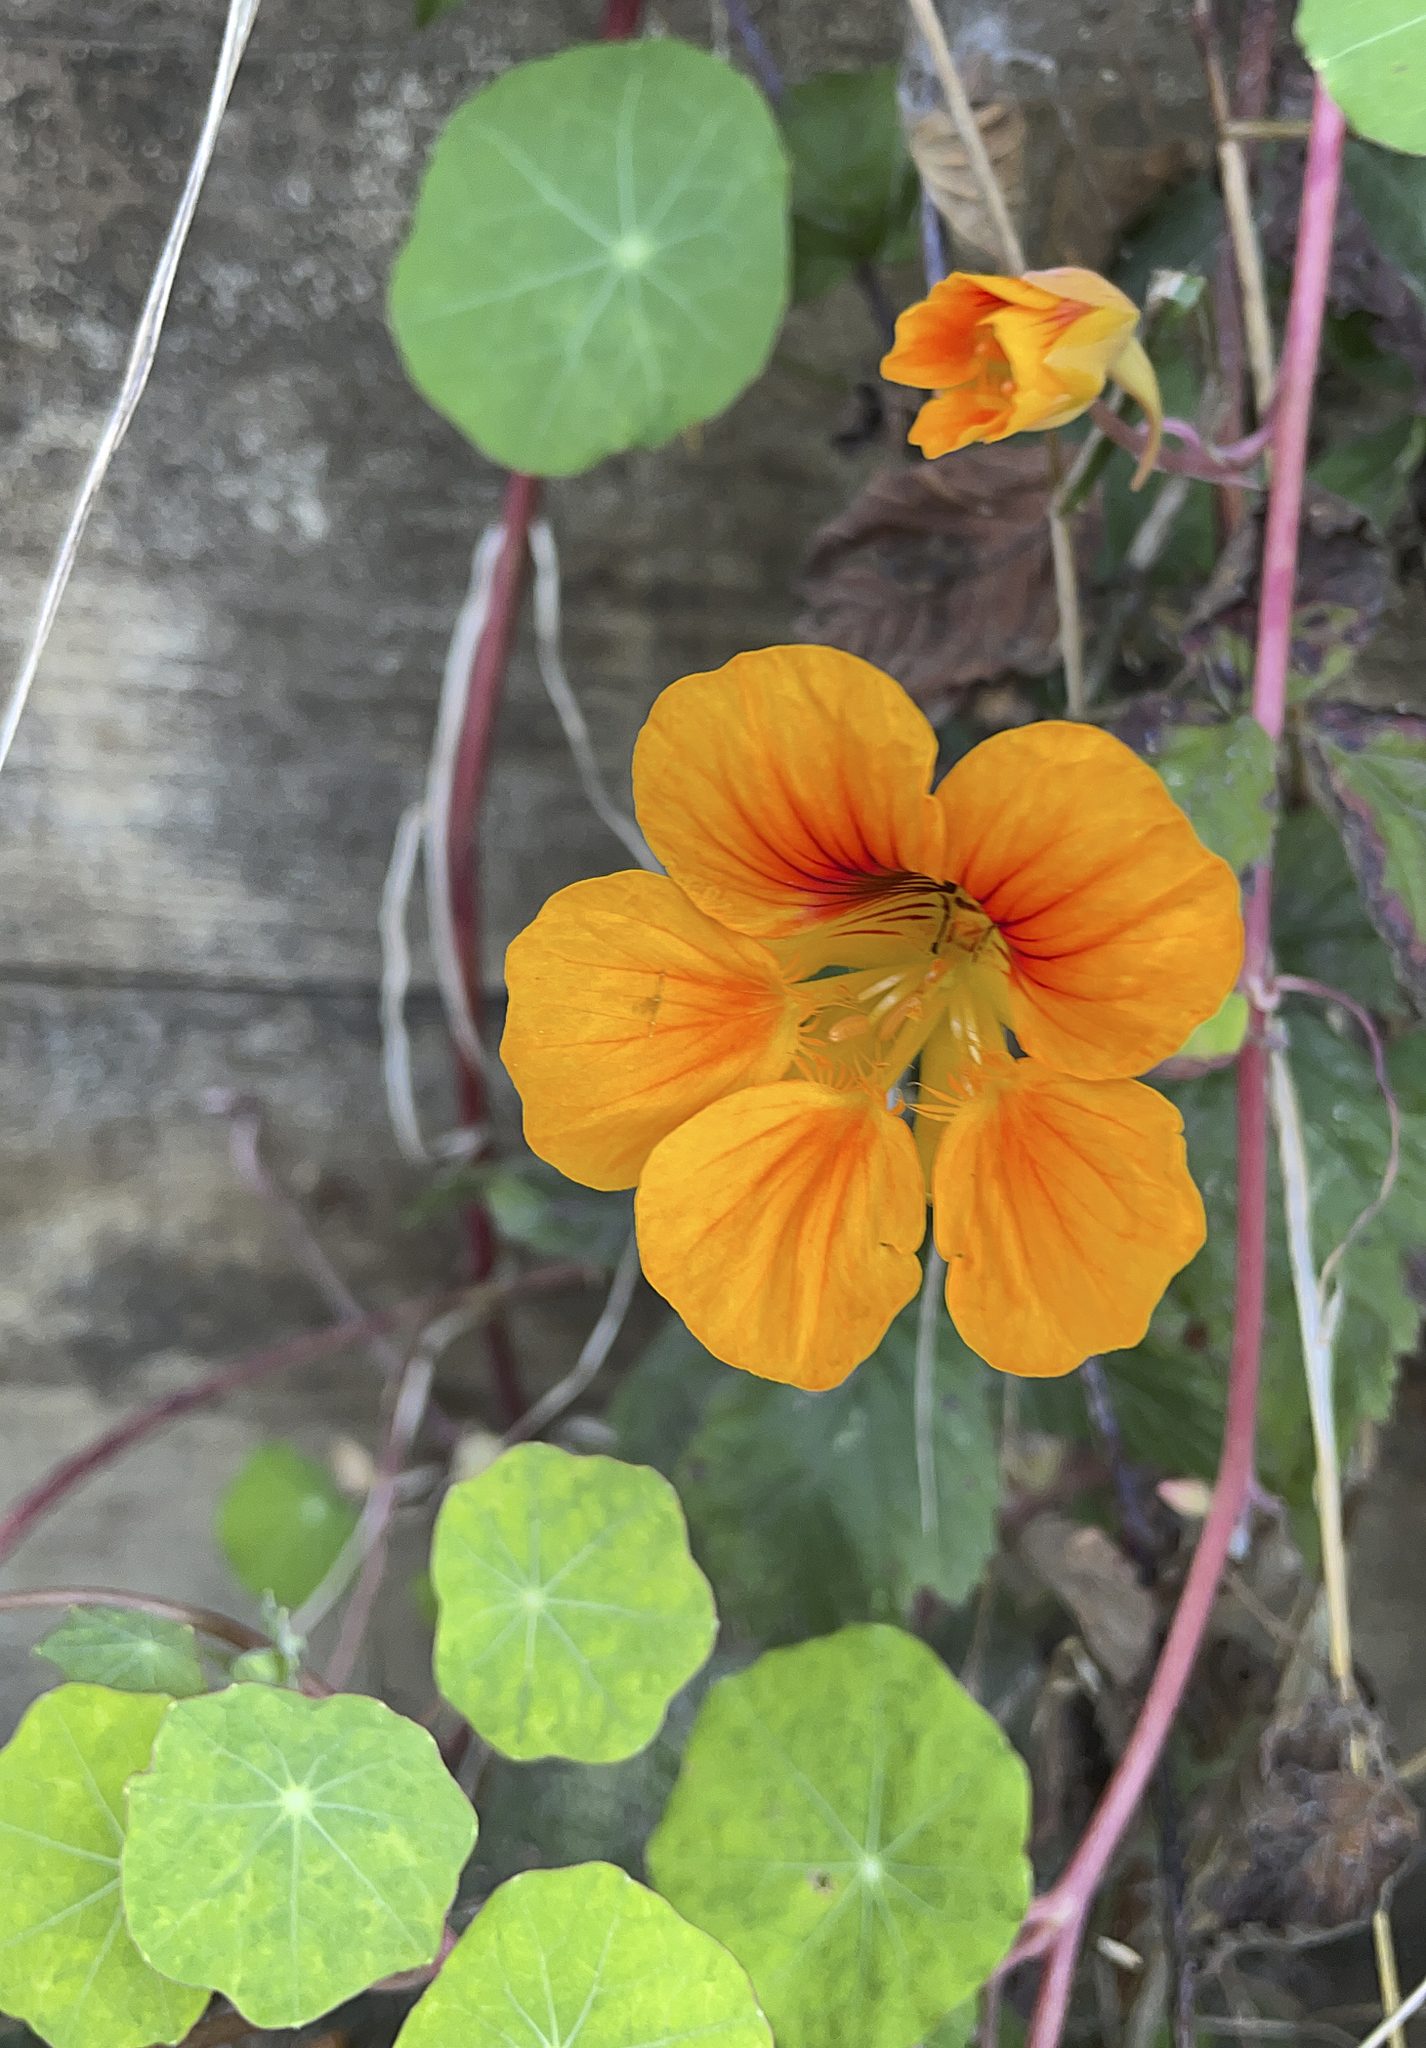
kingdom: Plantae
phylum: Tracheophyta
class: Magnoliopsida
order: Brassicales
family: Tropaeolaceae
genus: Tropaeolum
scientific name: Tropaeolum majus
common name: Nasturtium
